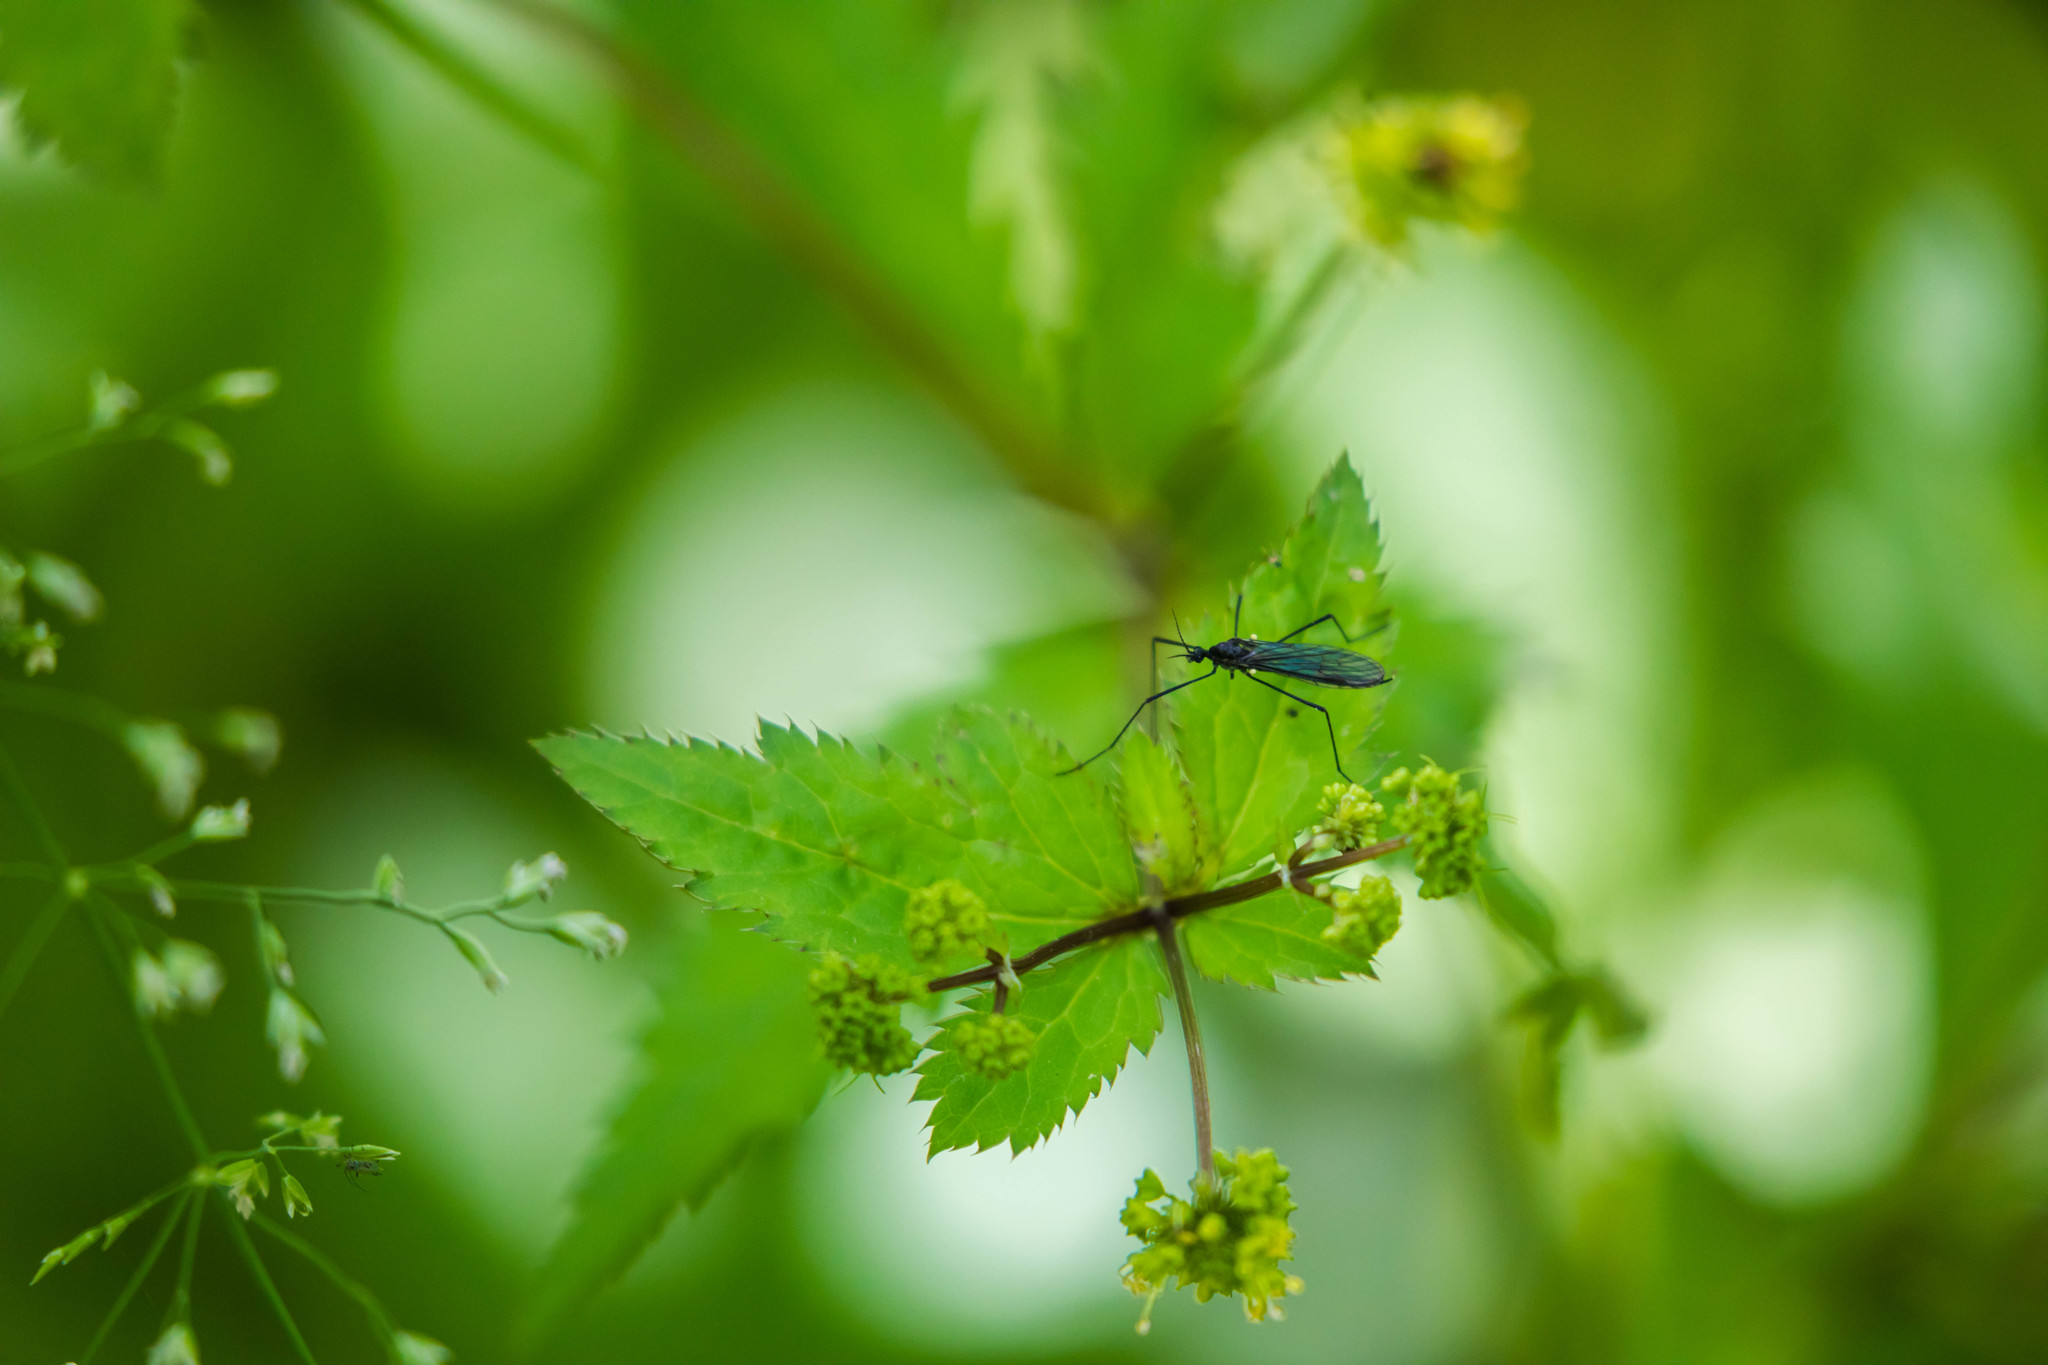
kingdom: Animalia
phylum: Arthropoda
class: Insecta
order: Diptera
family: Limoniidae
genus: Gnophomyia
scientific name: Gnophomyia tristissima
